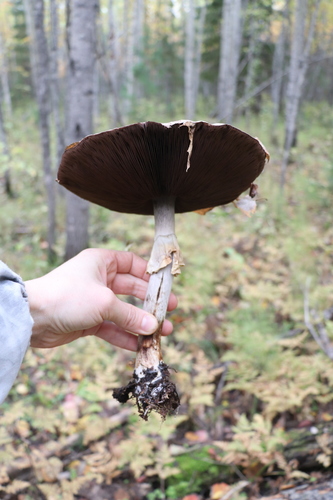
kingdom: Fungi
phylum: Basidiomycota
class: Agaricomycetes
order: Agaricales
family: Agaricaceae
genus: Agaricus
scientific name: Agaricus sylvicola
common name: Wood mushroom
